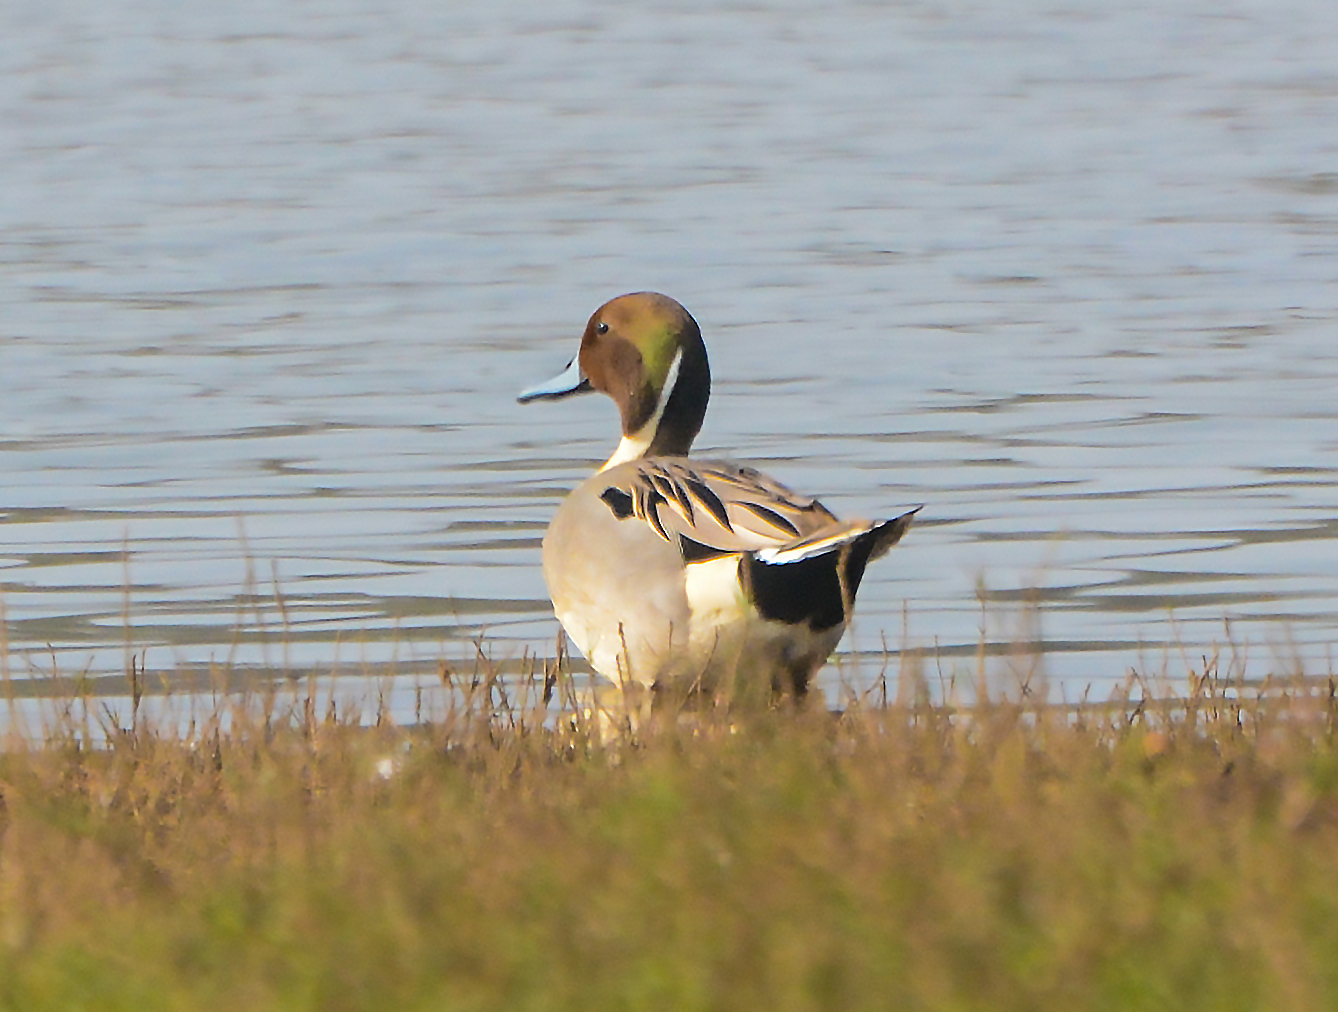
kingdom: Animalia
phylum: Chordata
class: Aves
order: Anseriformes
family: Anatidae
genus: Anas
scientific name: Anas acuta
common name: Northern pintail
